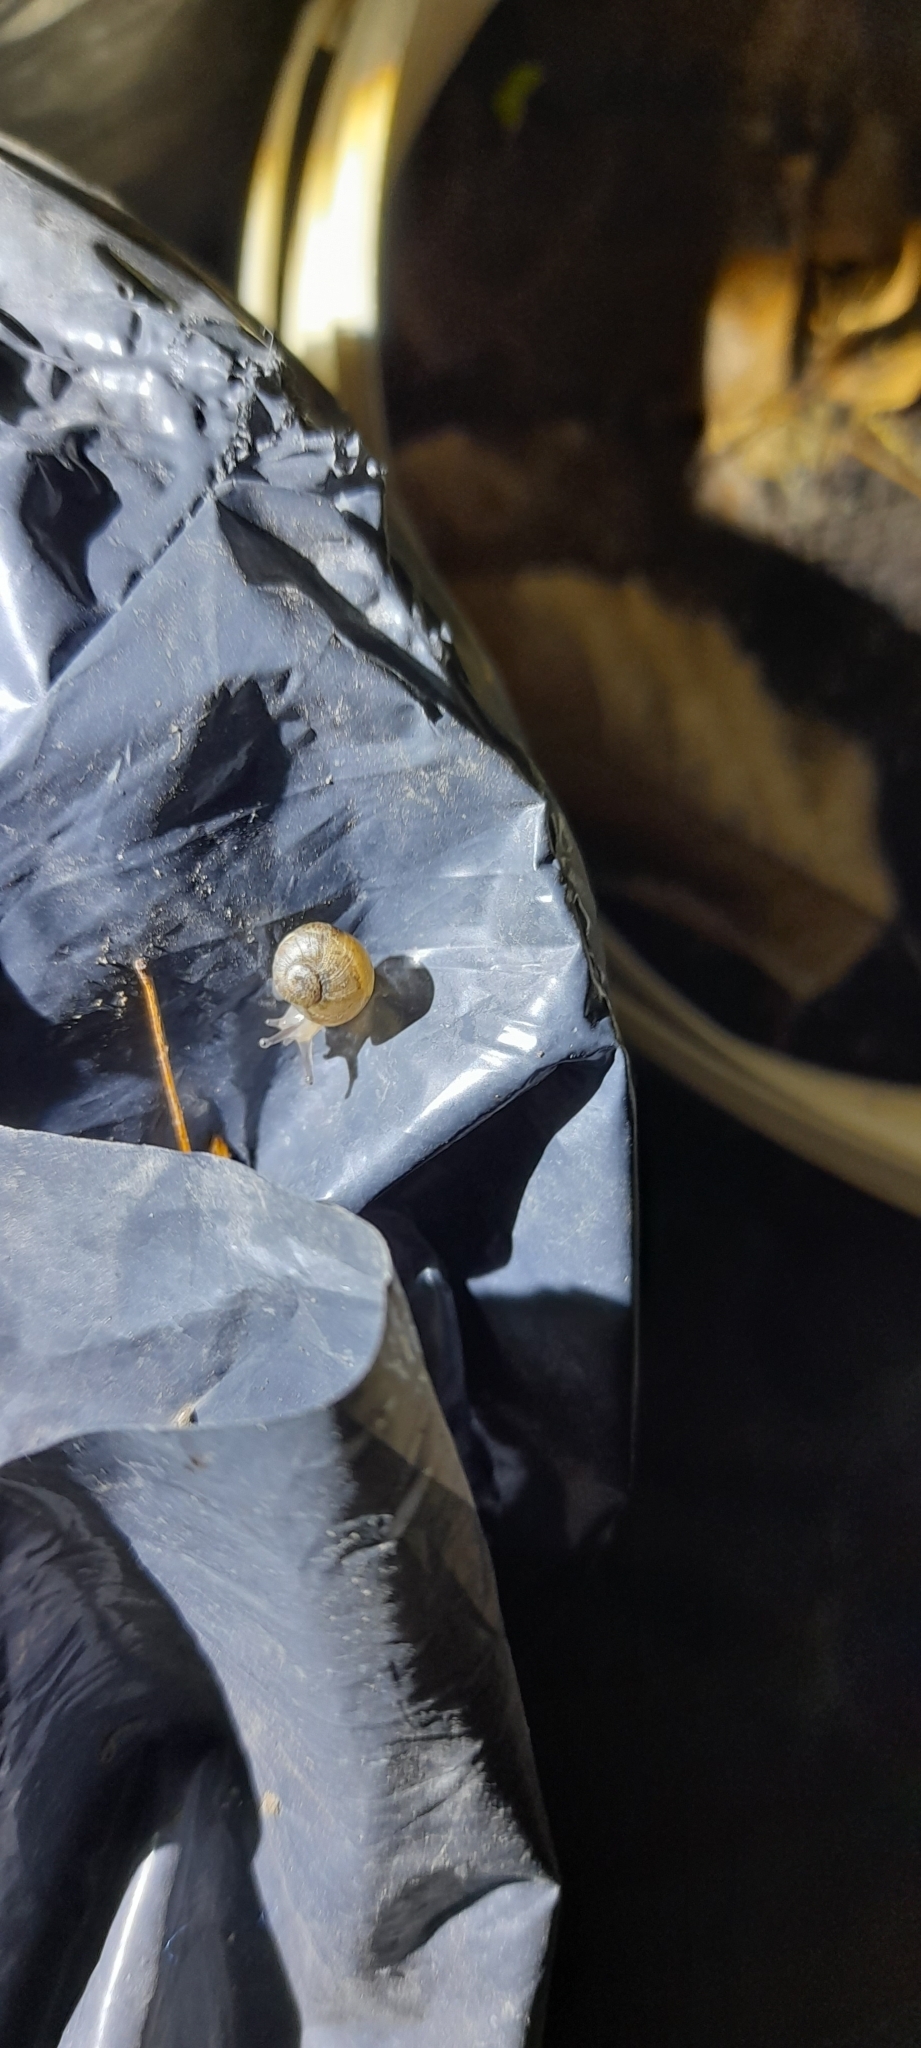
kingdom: Animalia
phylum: Mollusca
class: Gastropoda
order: Stylommatophora
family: Helicidae
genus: Cornu
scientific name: Cornu aspersum
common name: Brown garden snail
